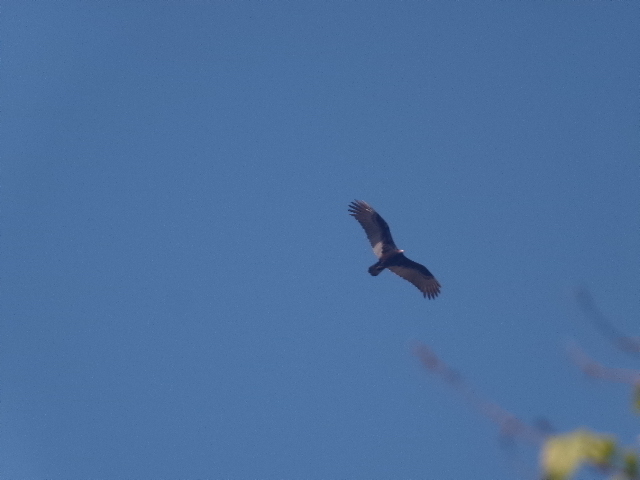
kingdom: Animalia
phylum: Chordata
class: Aves
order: Accipitriformes
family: Cathartidae
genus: Cathartes
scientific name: Cathartes aura
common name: Turkey vulture
